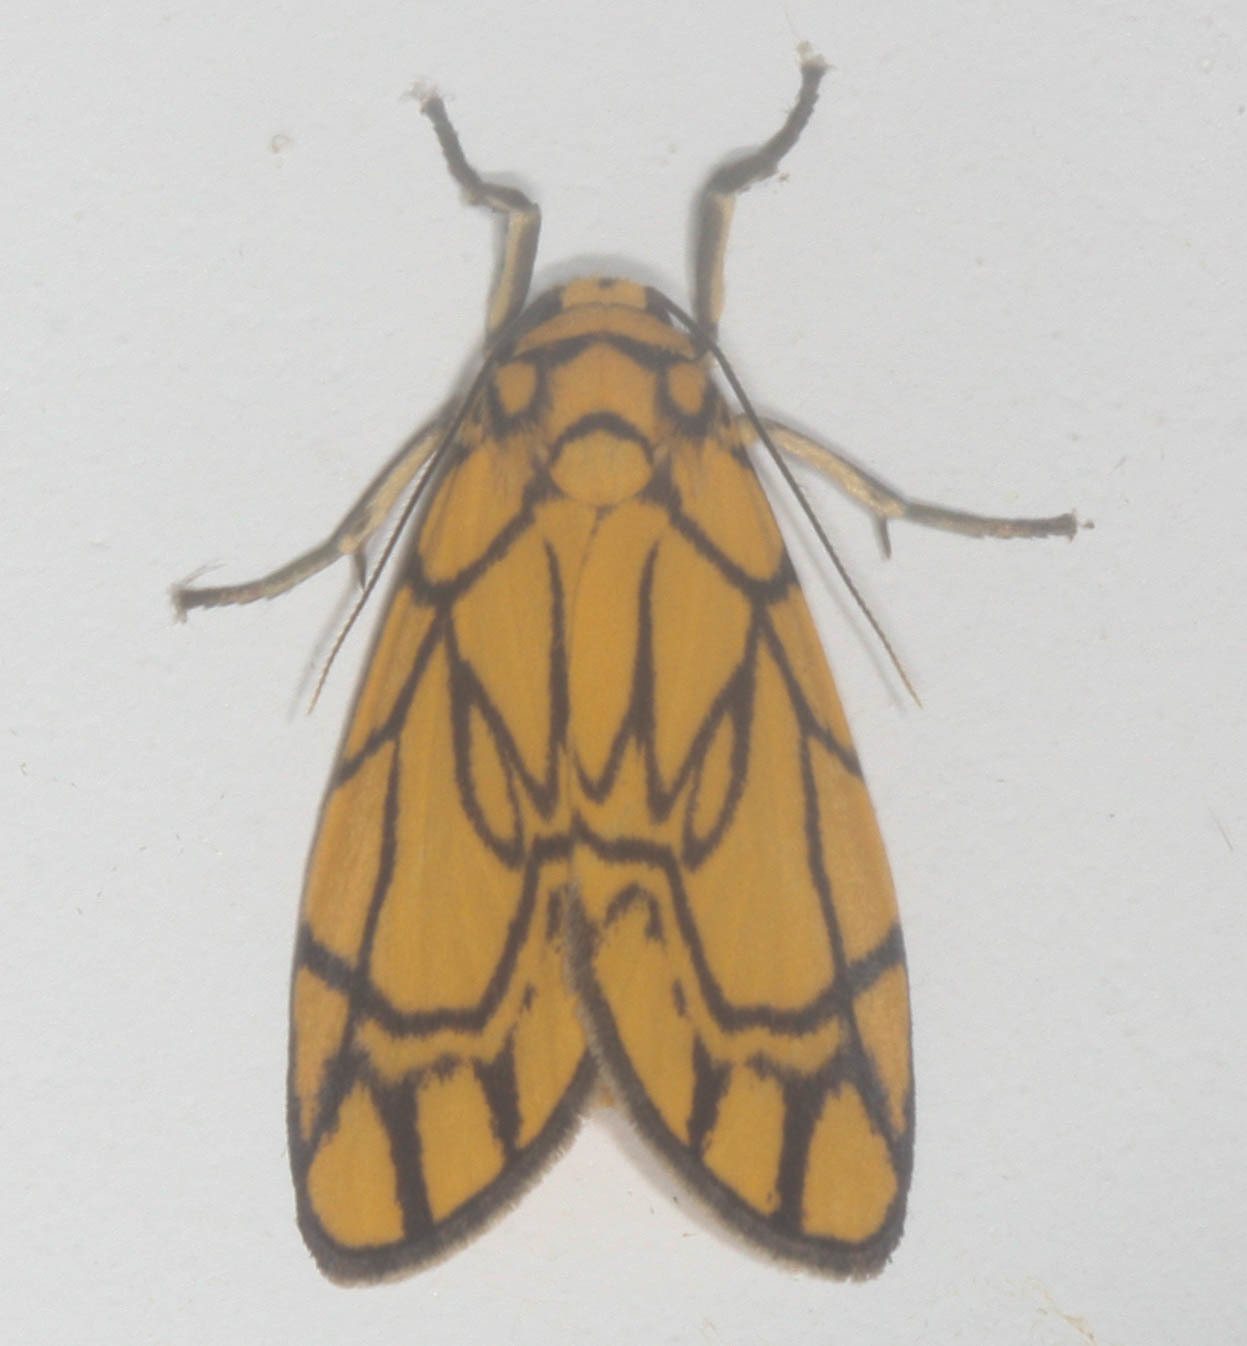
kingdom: Animalia
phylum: Arthropoda
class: Insecta
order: Lepidoptera
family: Erebidae
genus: Cyme
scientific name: Cyme euprepioides
